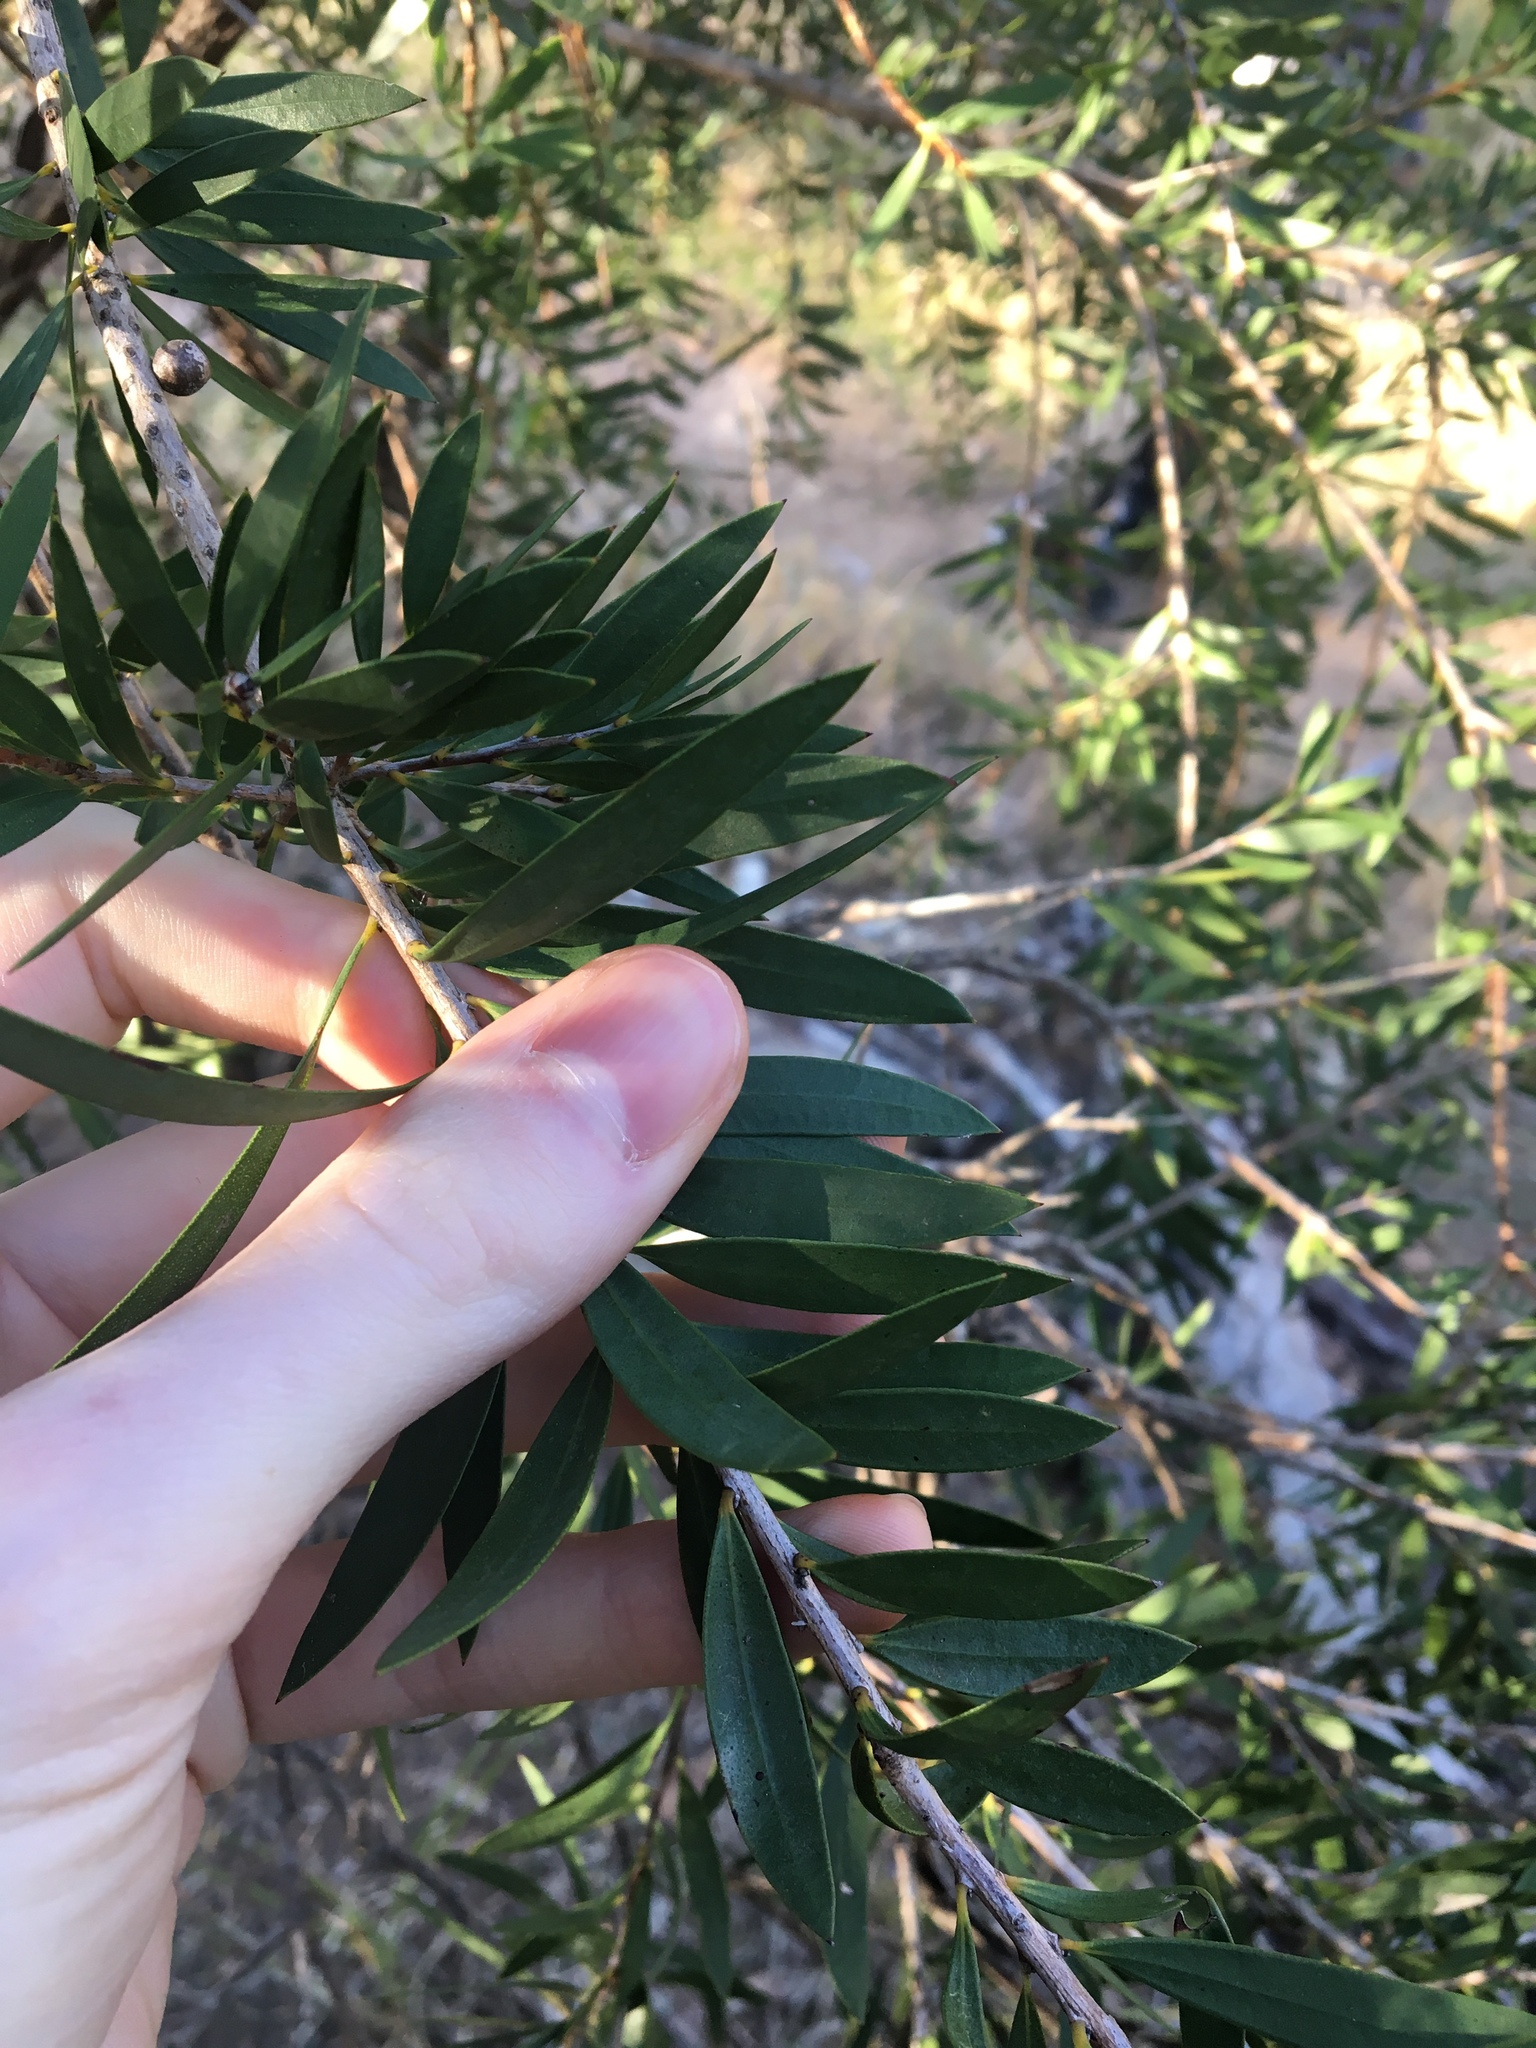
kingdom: Plantae
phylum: Tracheophyta
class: Magnoliopsida
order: Myrtales
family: Myrtaceae
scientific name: Myrtaceae
